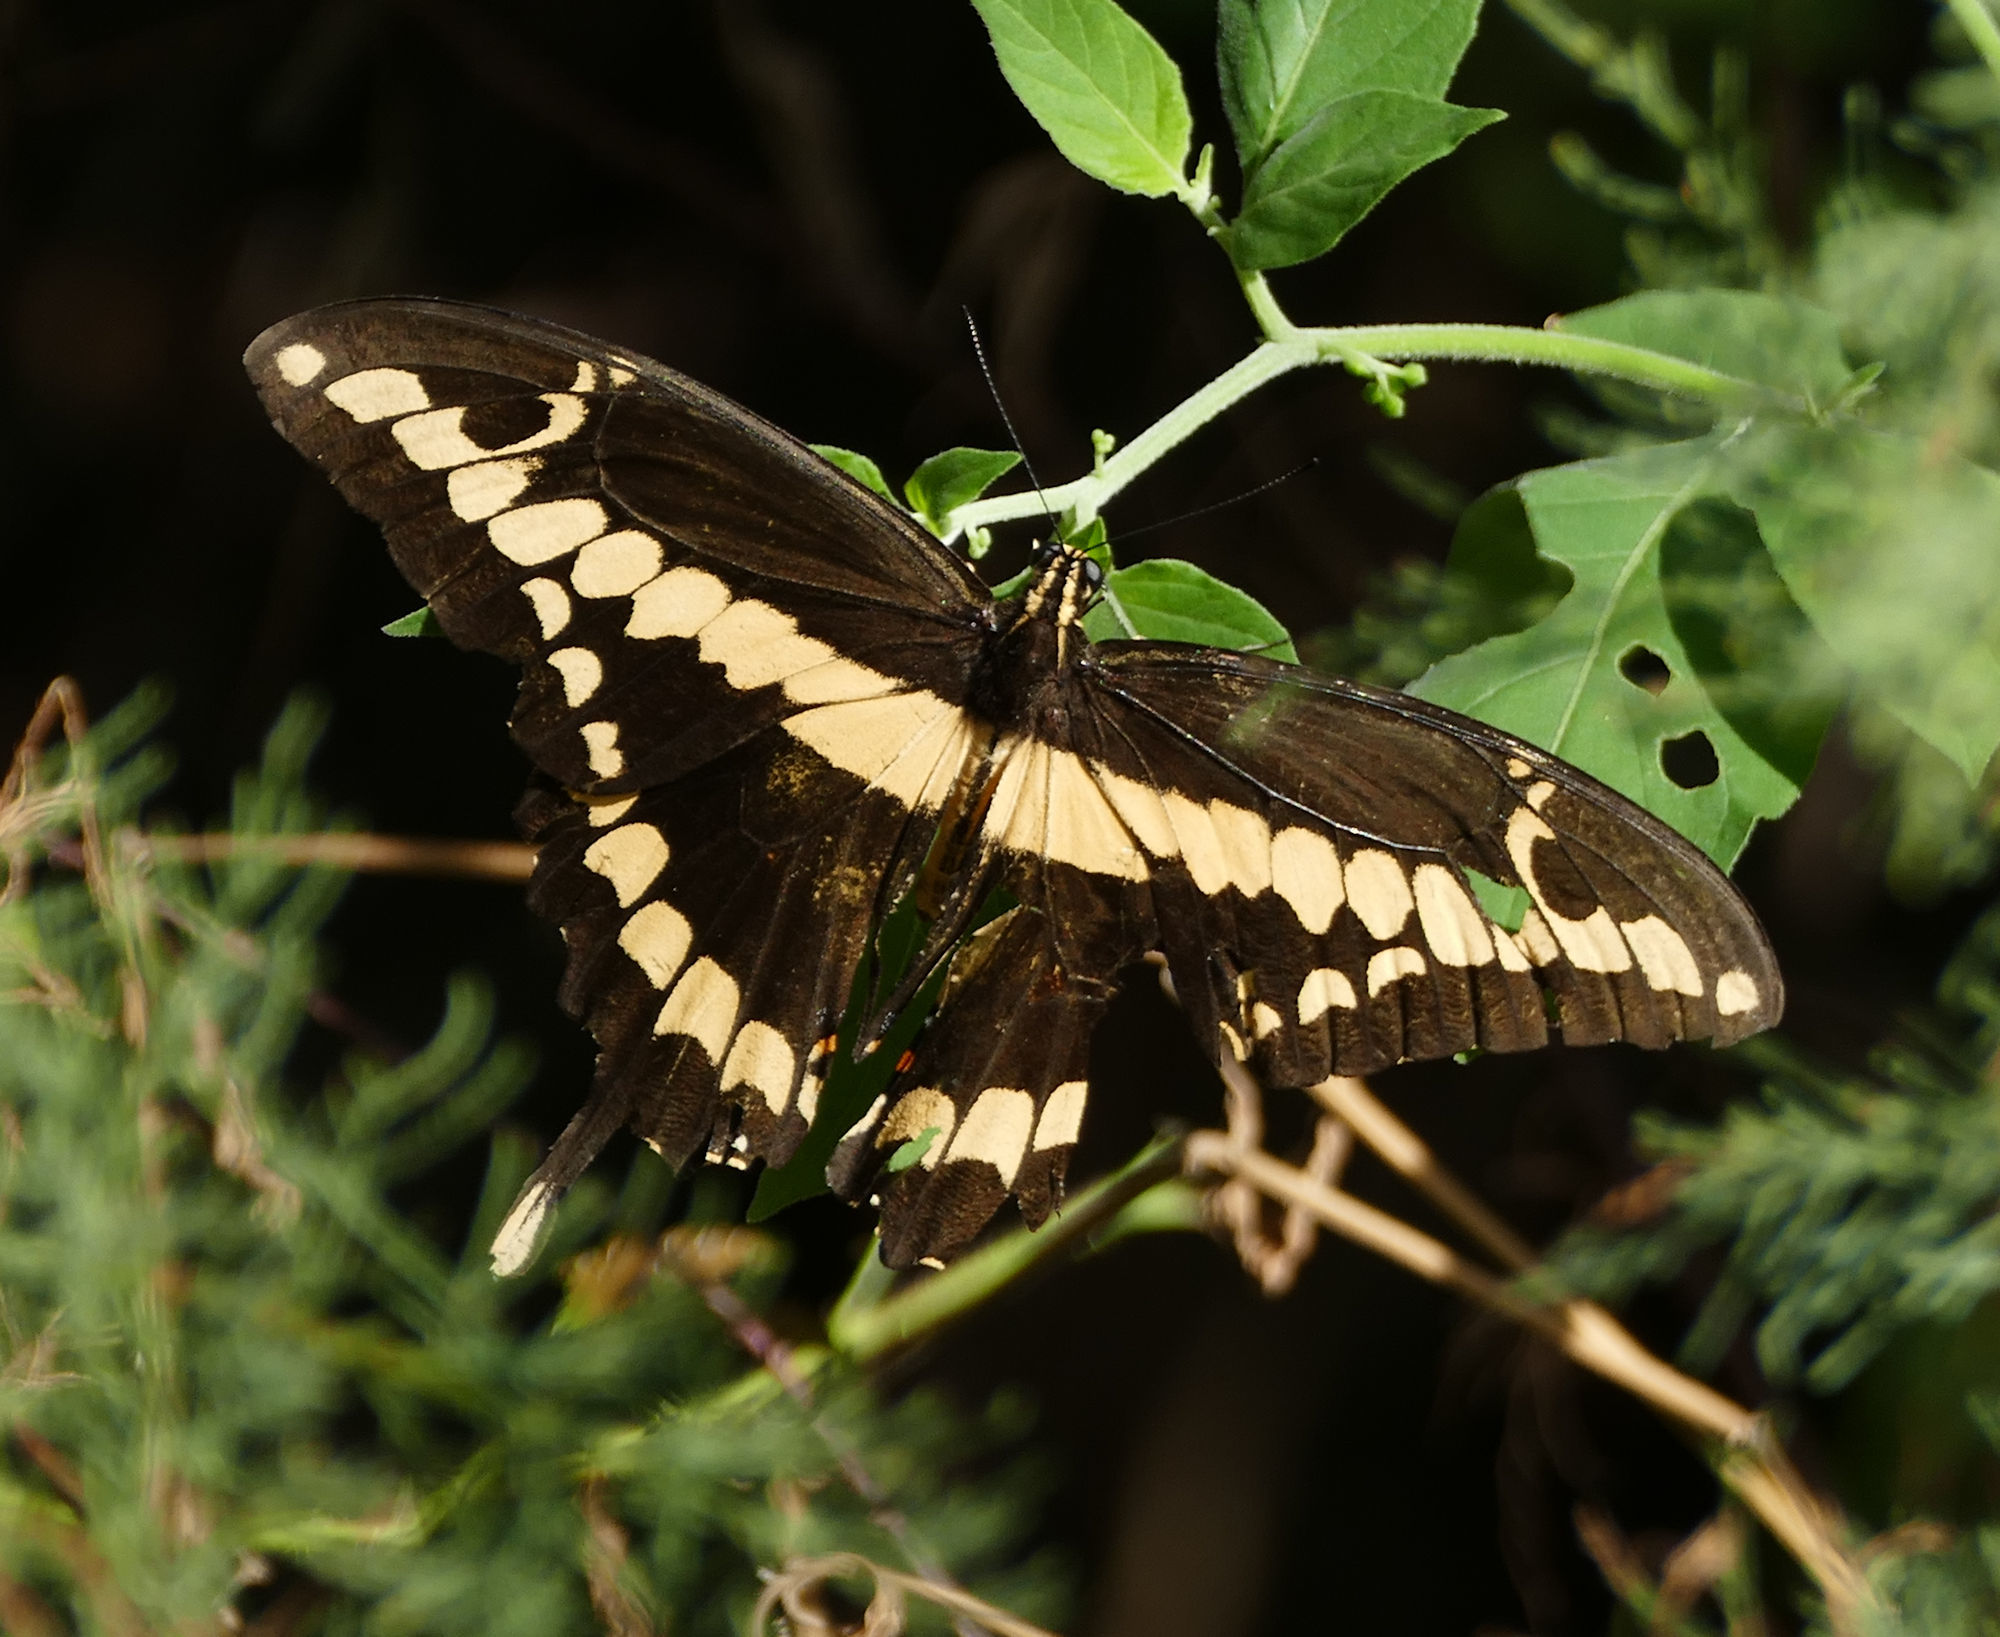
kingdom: Animalia
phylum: Arthropoda
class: Insecta
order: Lepidoptera
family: Papilionidae
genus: Papilio
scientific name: Papilio rumiko
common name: Western giant swallowtail
